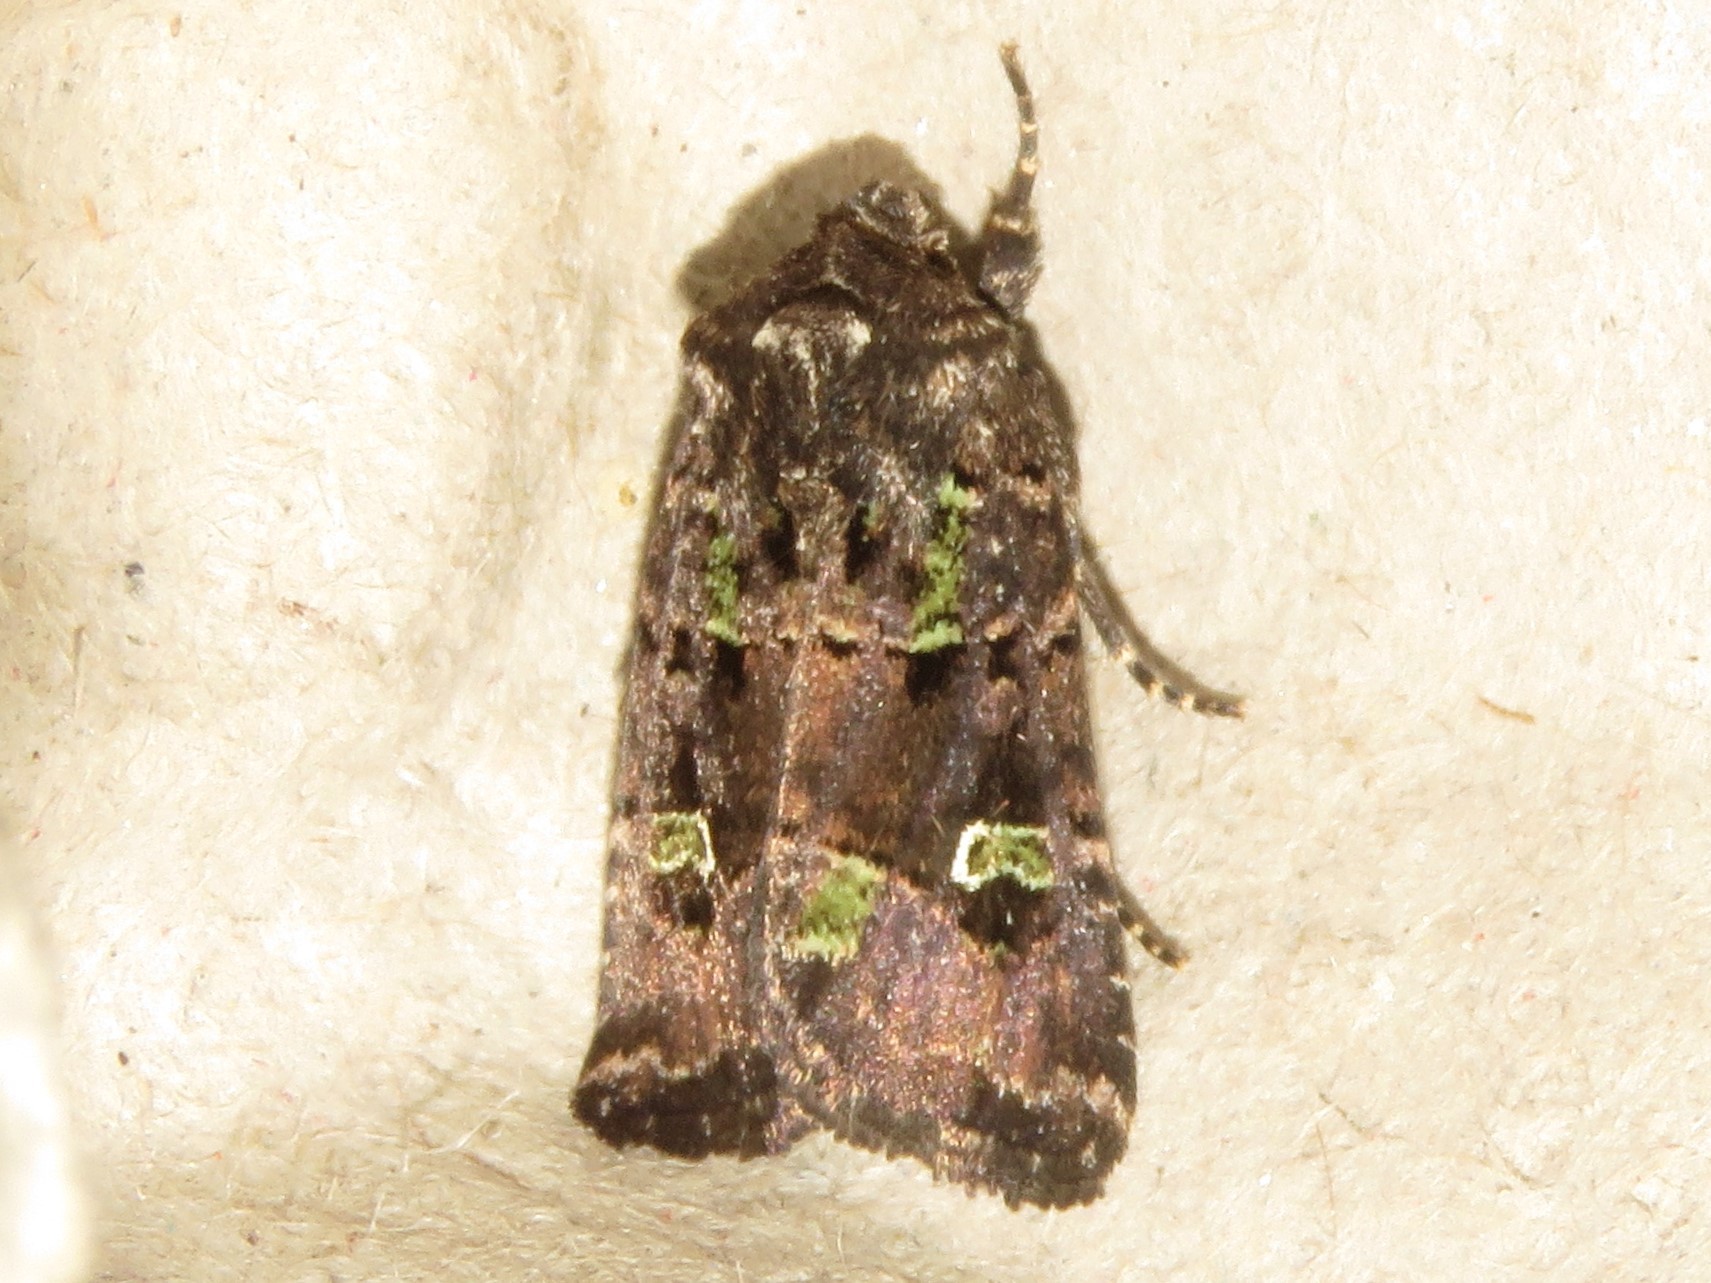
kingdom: Animalia
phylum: Arthropoda
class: Insecta
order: Lepidoptera
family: Noctuidae
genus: Lacinipolia
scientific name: Lacinipolia renigera
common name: Kidney-spotted minor
